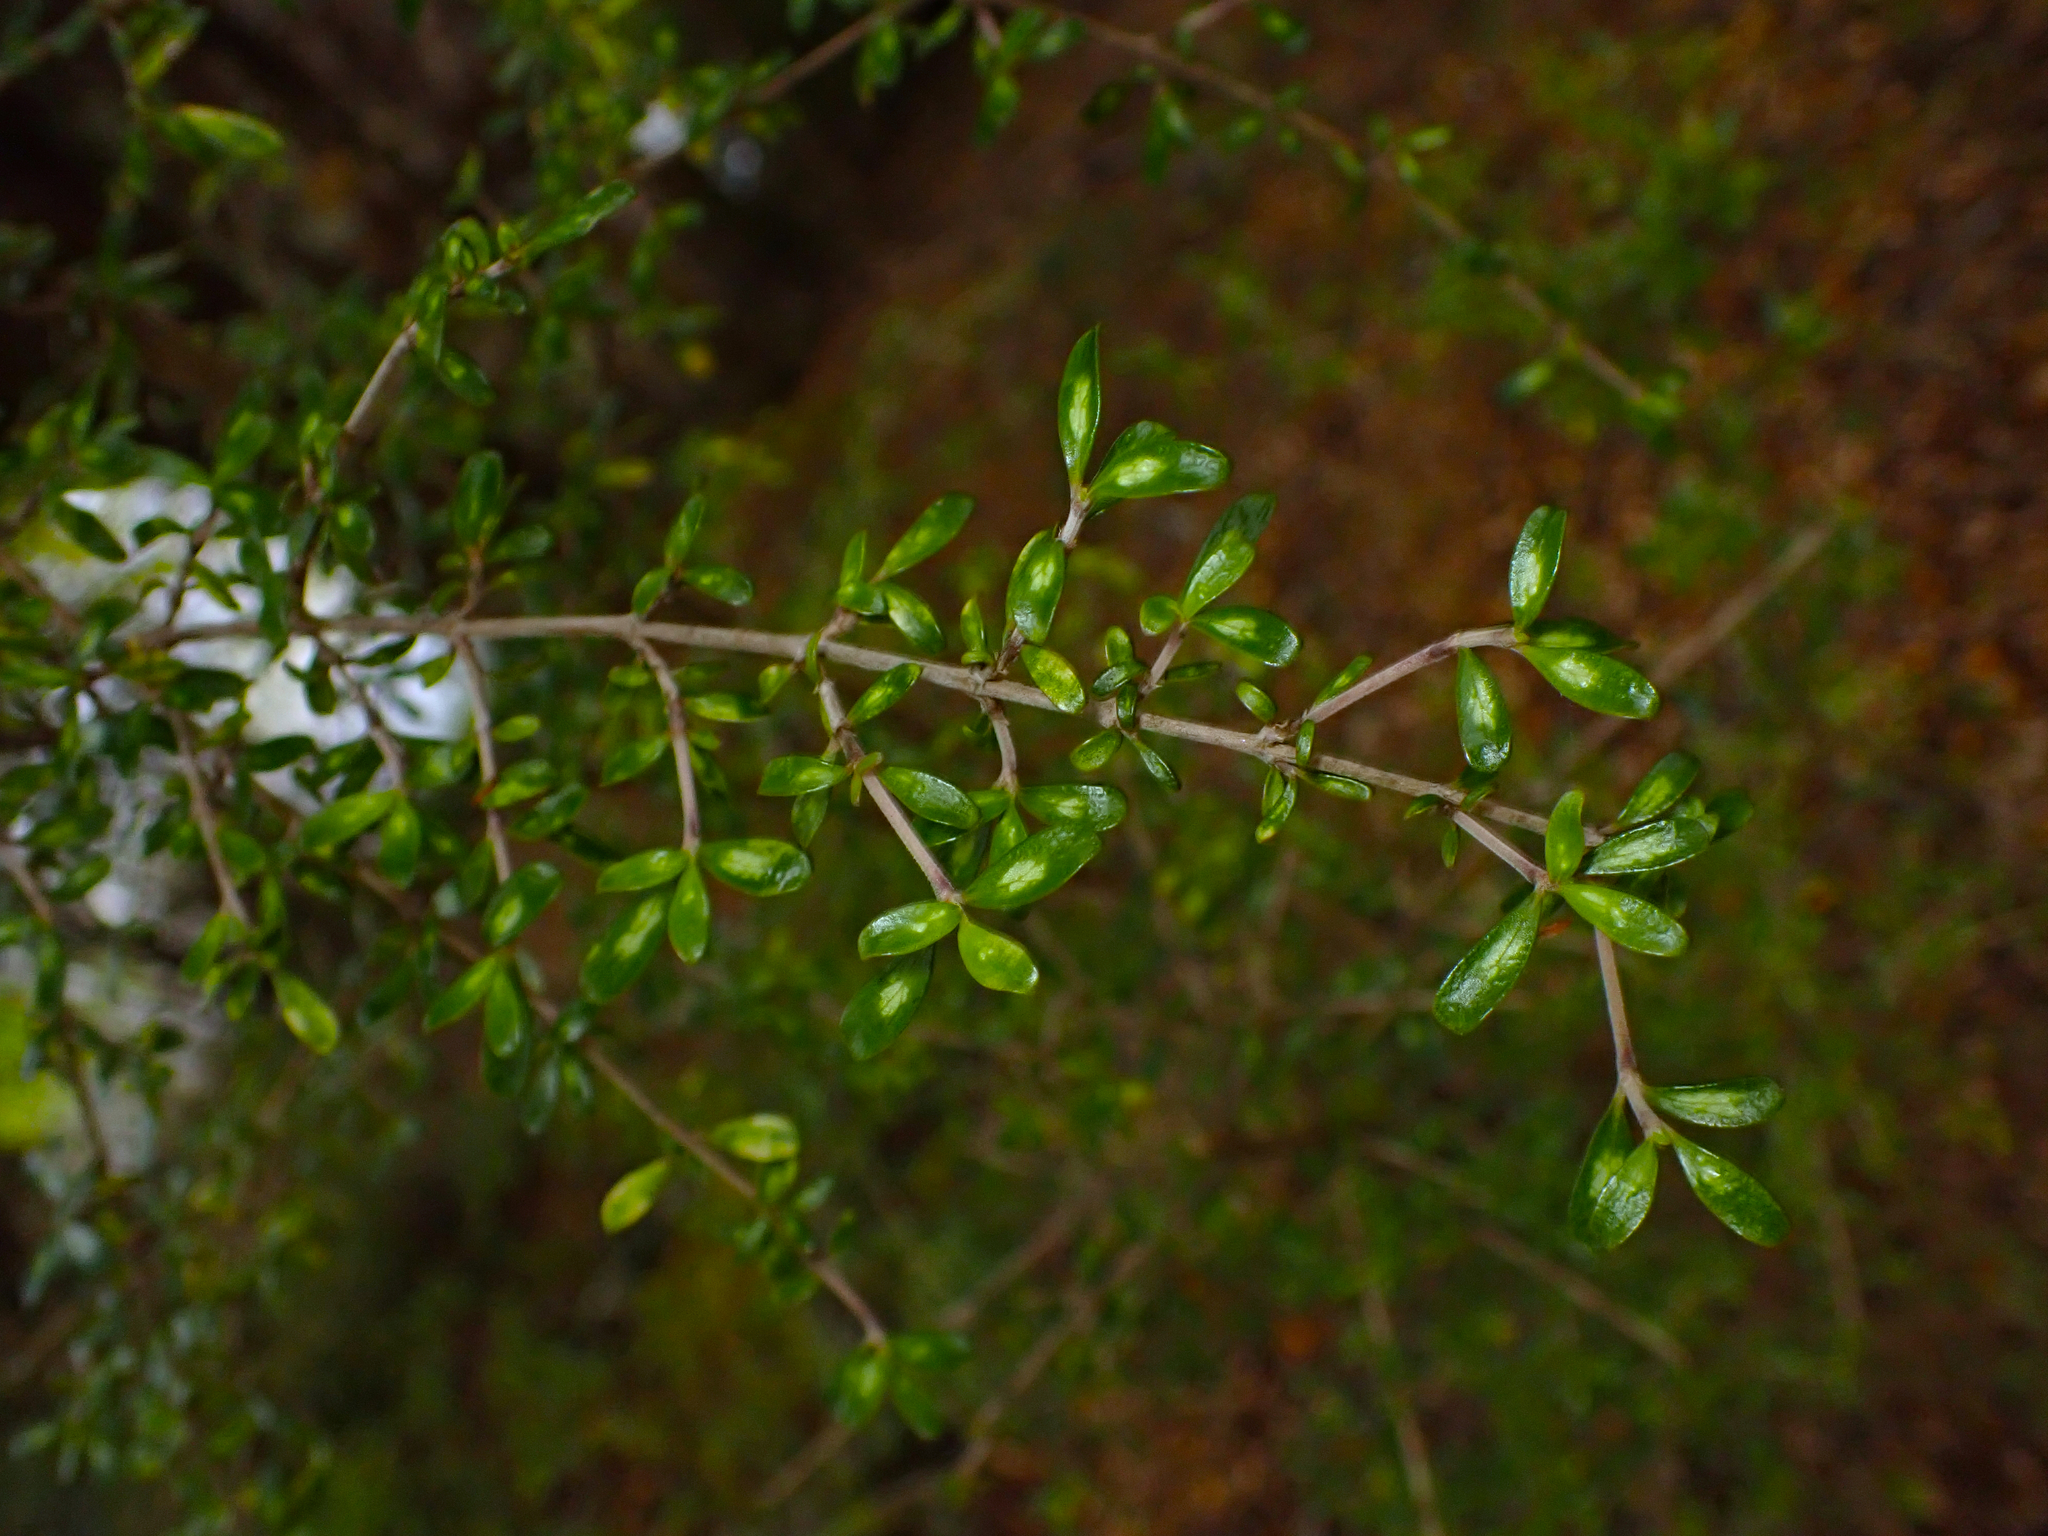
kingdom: Plantae
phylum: Tracheophyta
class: Magnoliopsida
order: Gentianales
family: Rubiaceae
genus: Coprosma
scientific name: Coprosma dumosa
